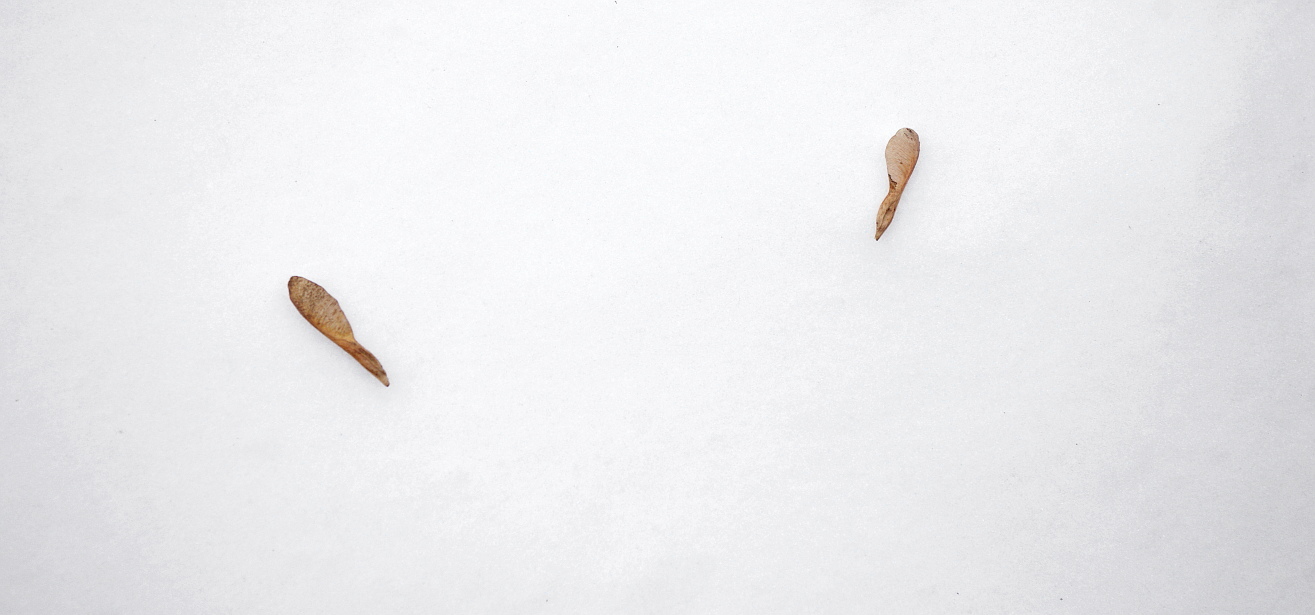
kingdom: Plantae
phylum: Tracheophyta
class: Magnoliopsida
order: Sapindales
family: Sapindaceae
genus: Acer
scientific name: Acer negundo
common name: Ashleaf maple
